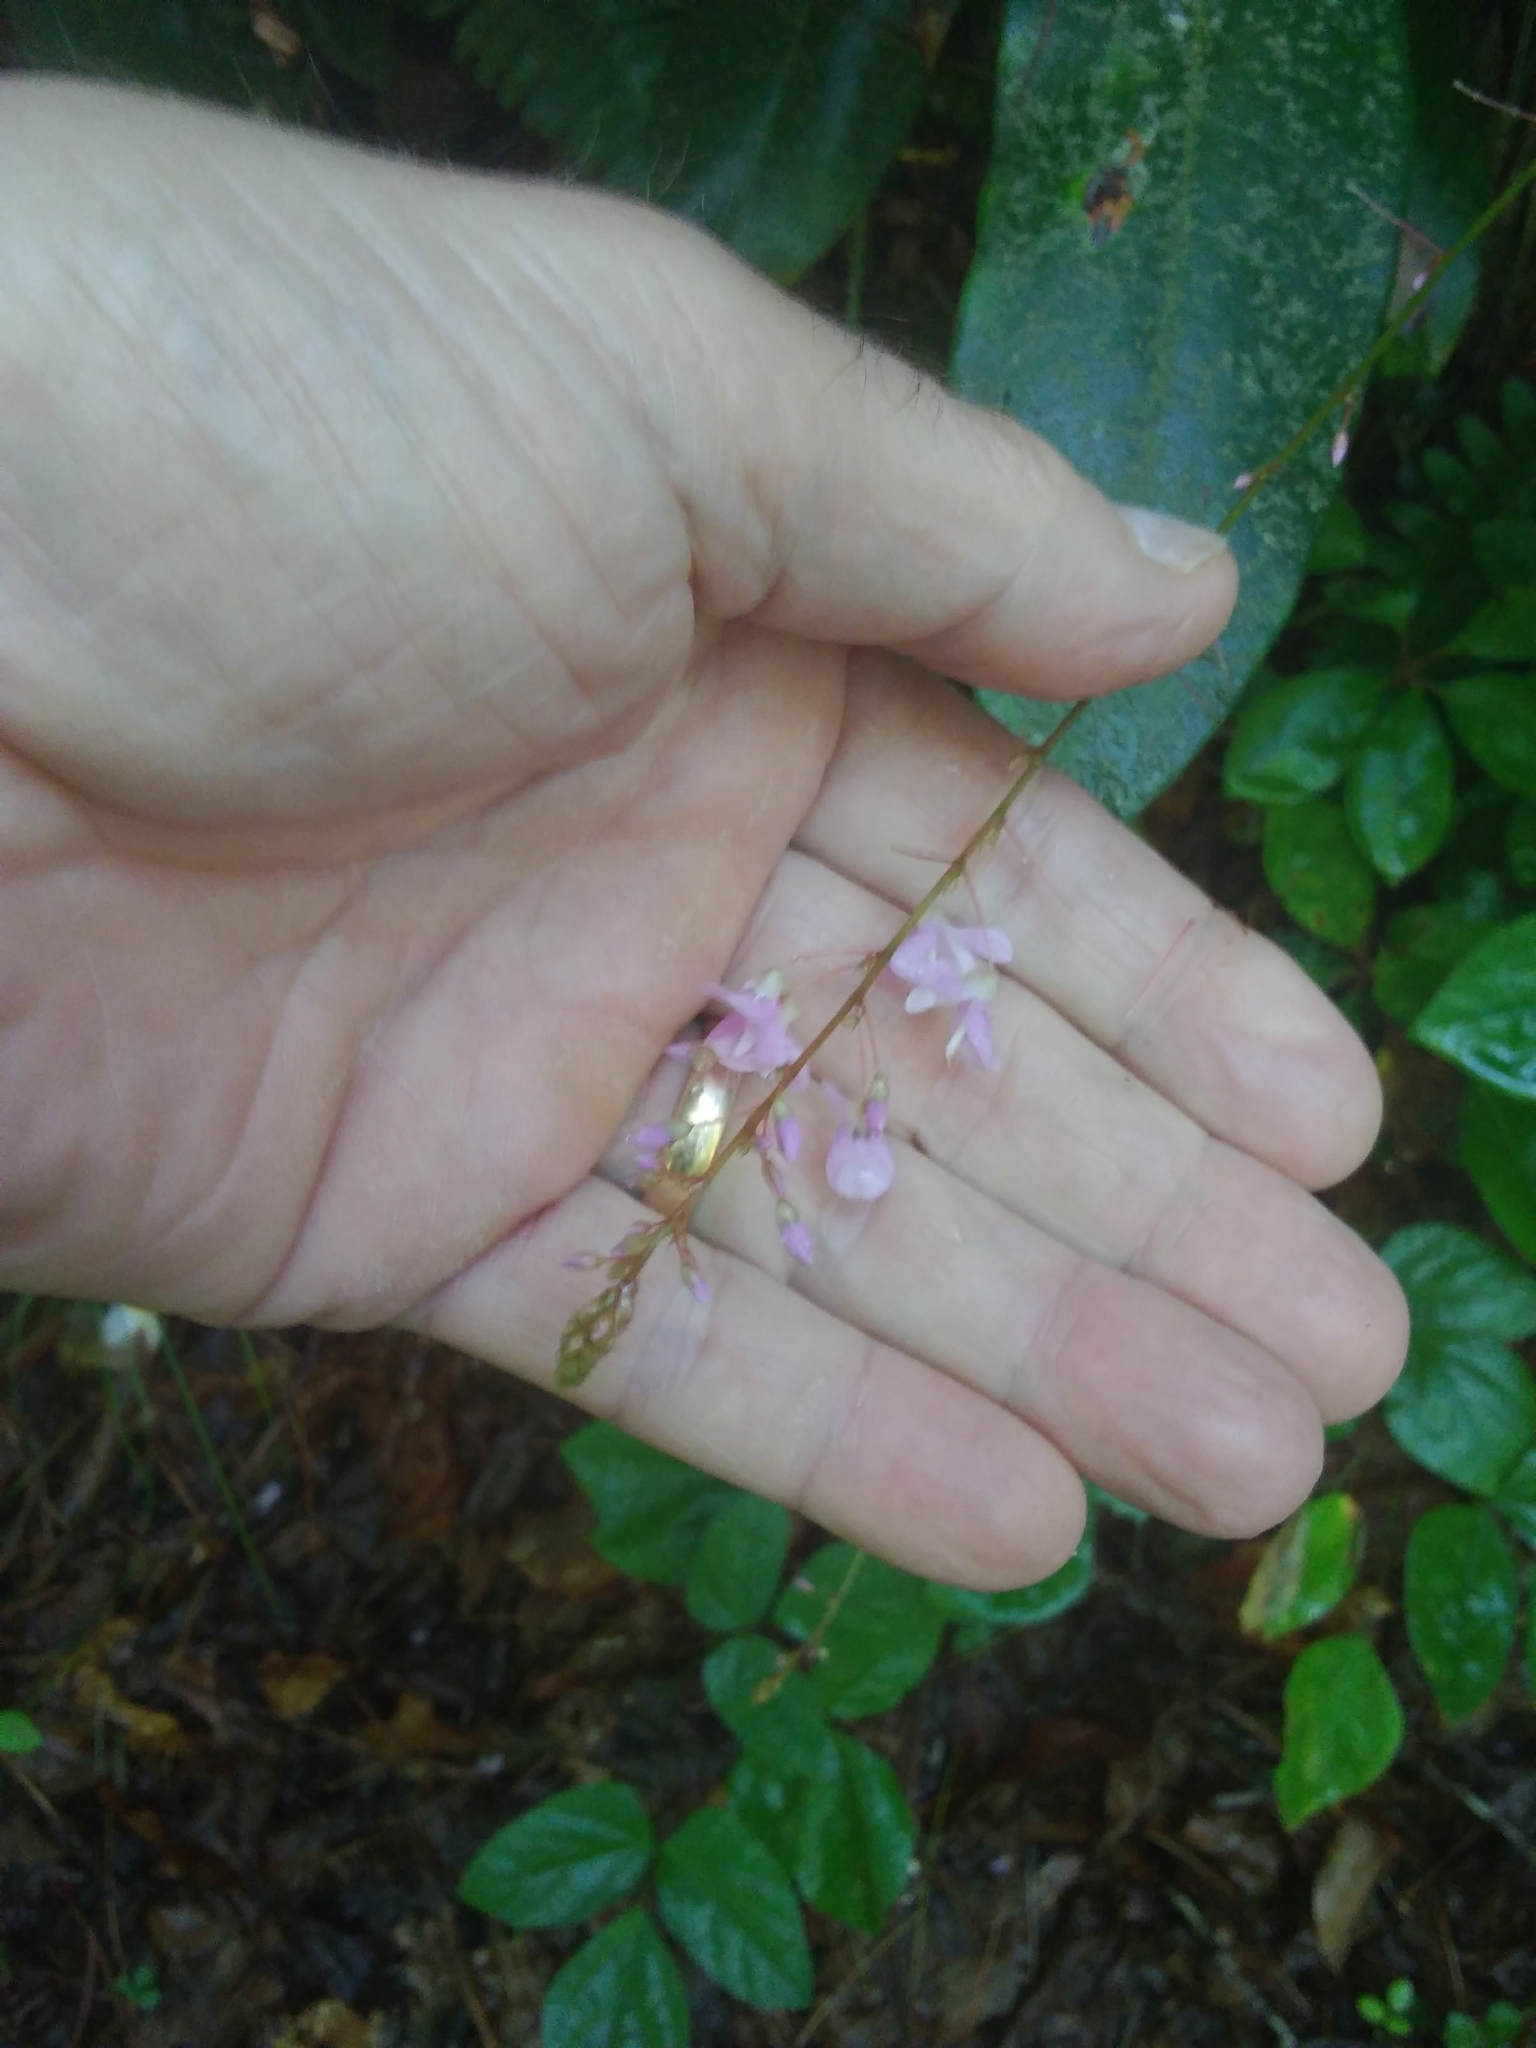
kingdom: Plantae
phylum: Tracheophyta
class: Magnoliopsida
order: Fabales
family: Fabaceae
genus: Hylodesmum
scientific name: Hylodesmum nudiflorum
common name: Bare-stemmed tick-trefoil
